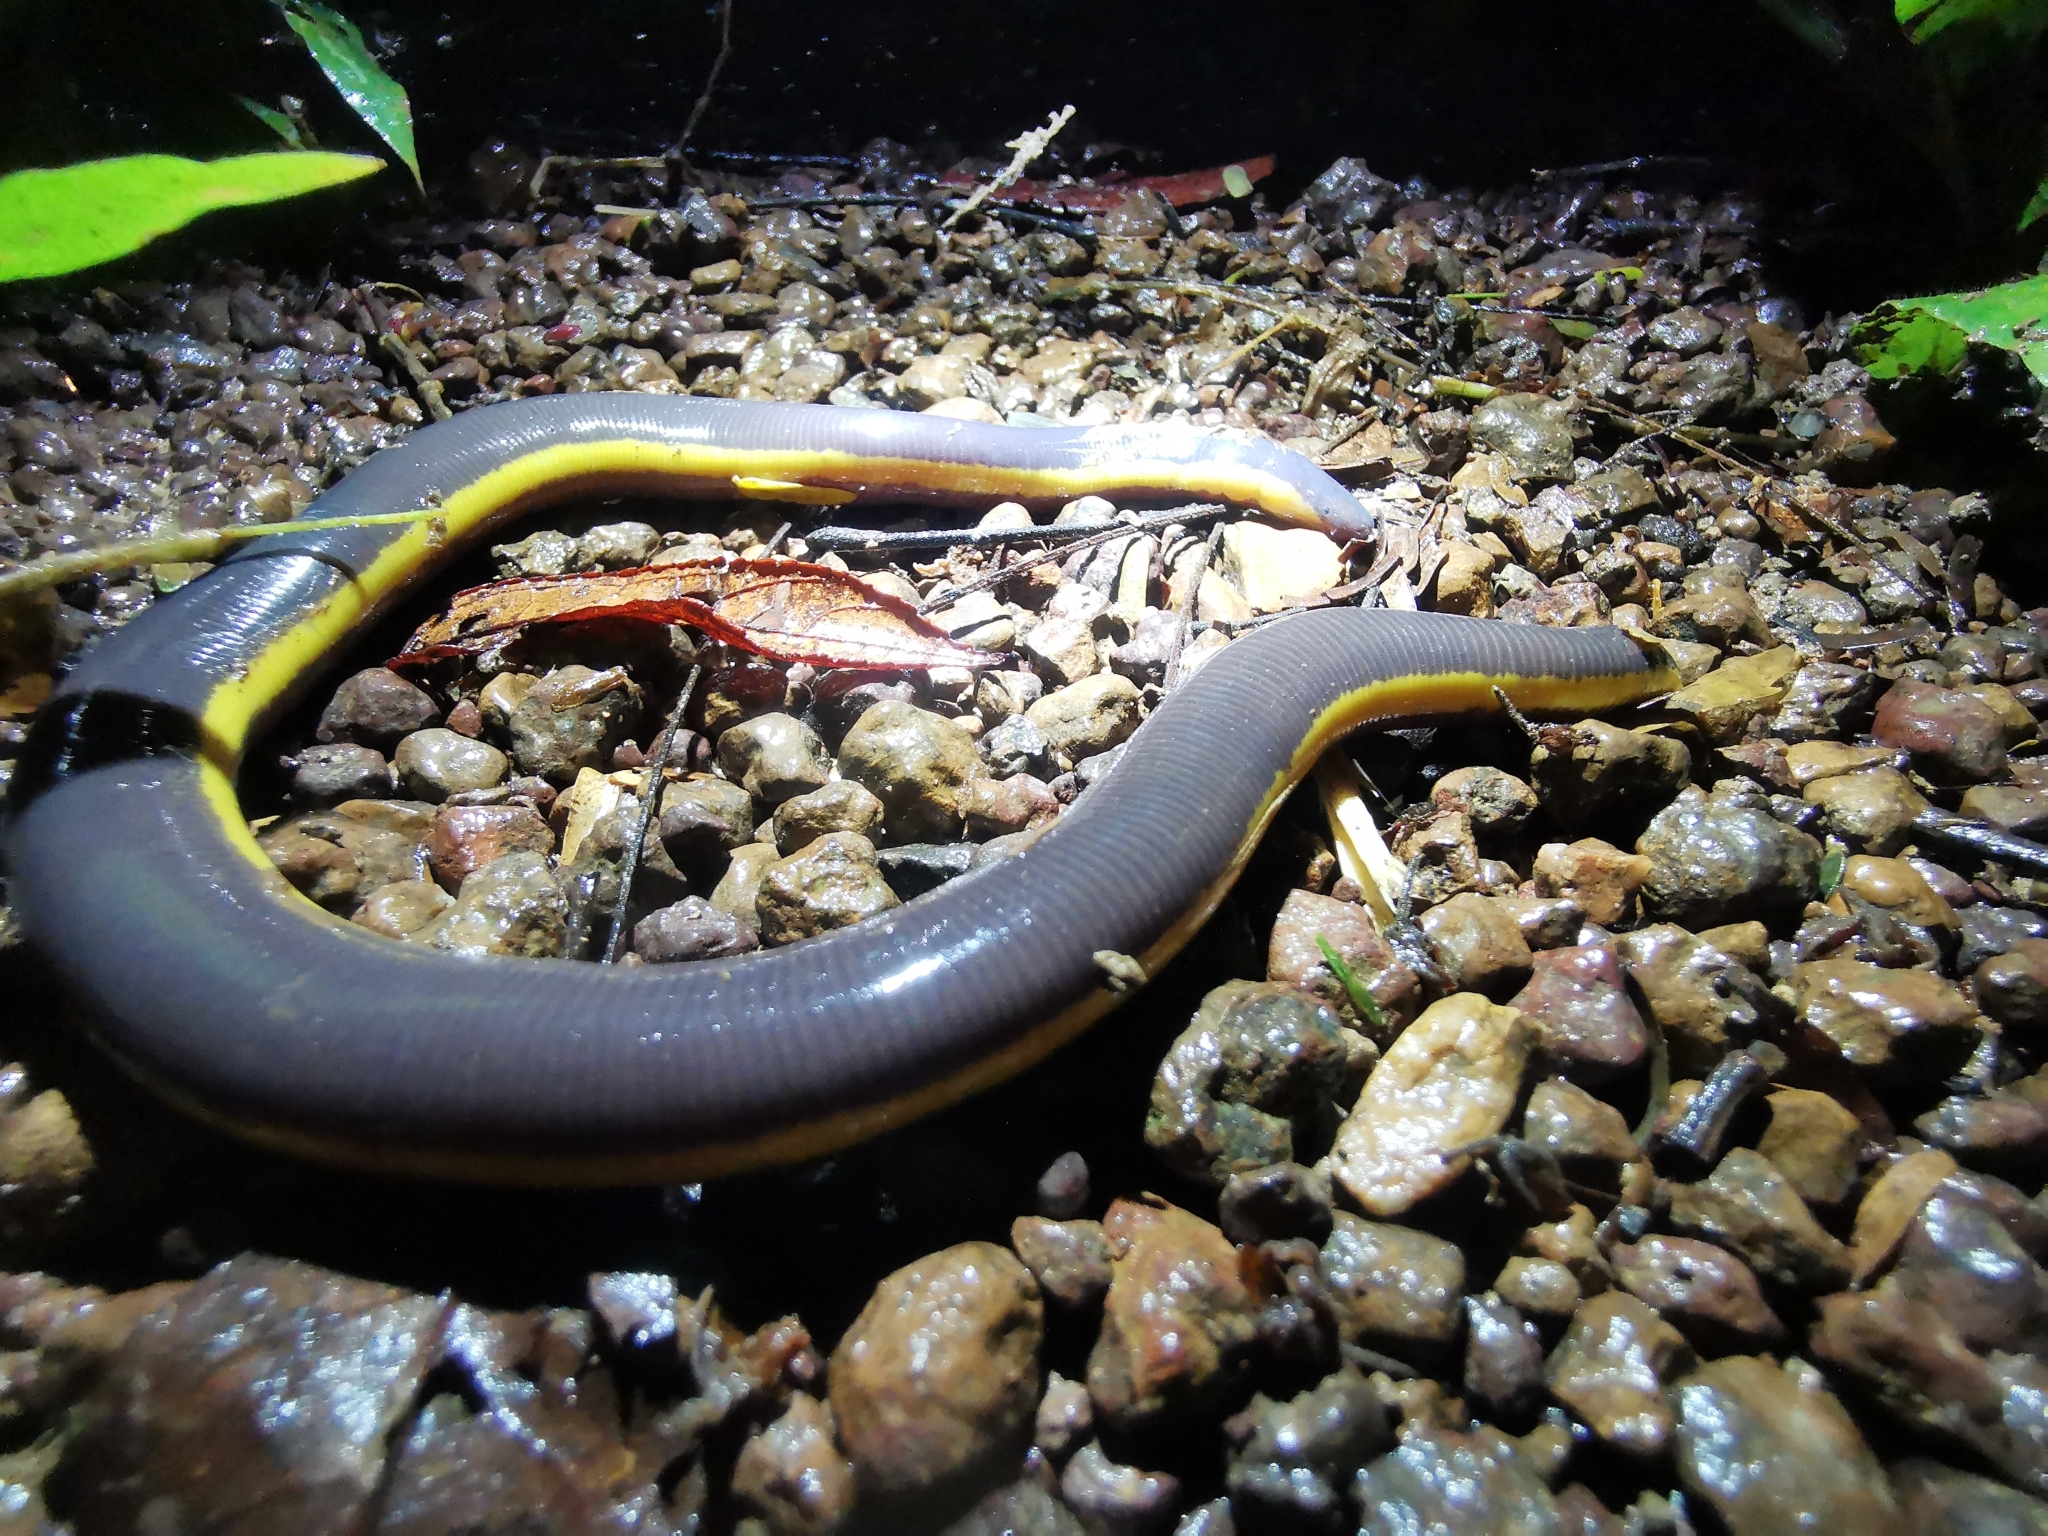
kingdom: Animalia
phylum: Chordata
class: Amphibia
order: Gymnophiona
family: Ichthyophiidae
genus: Ichthyophis
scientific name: Ichthyophis kohtaoensis
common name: Koa tao island caecilian
